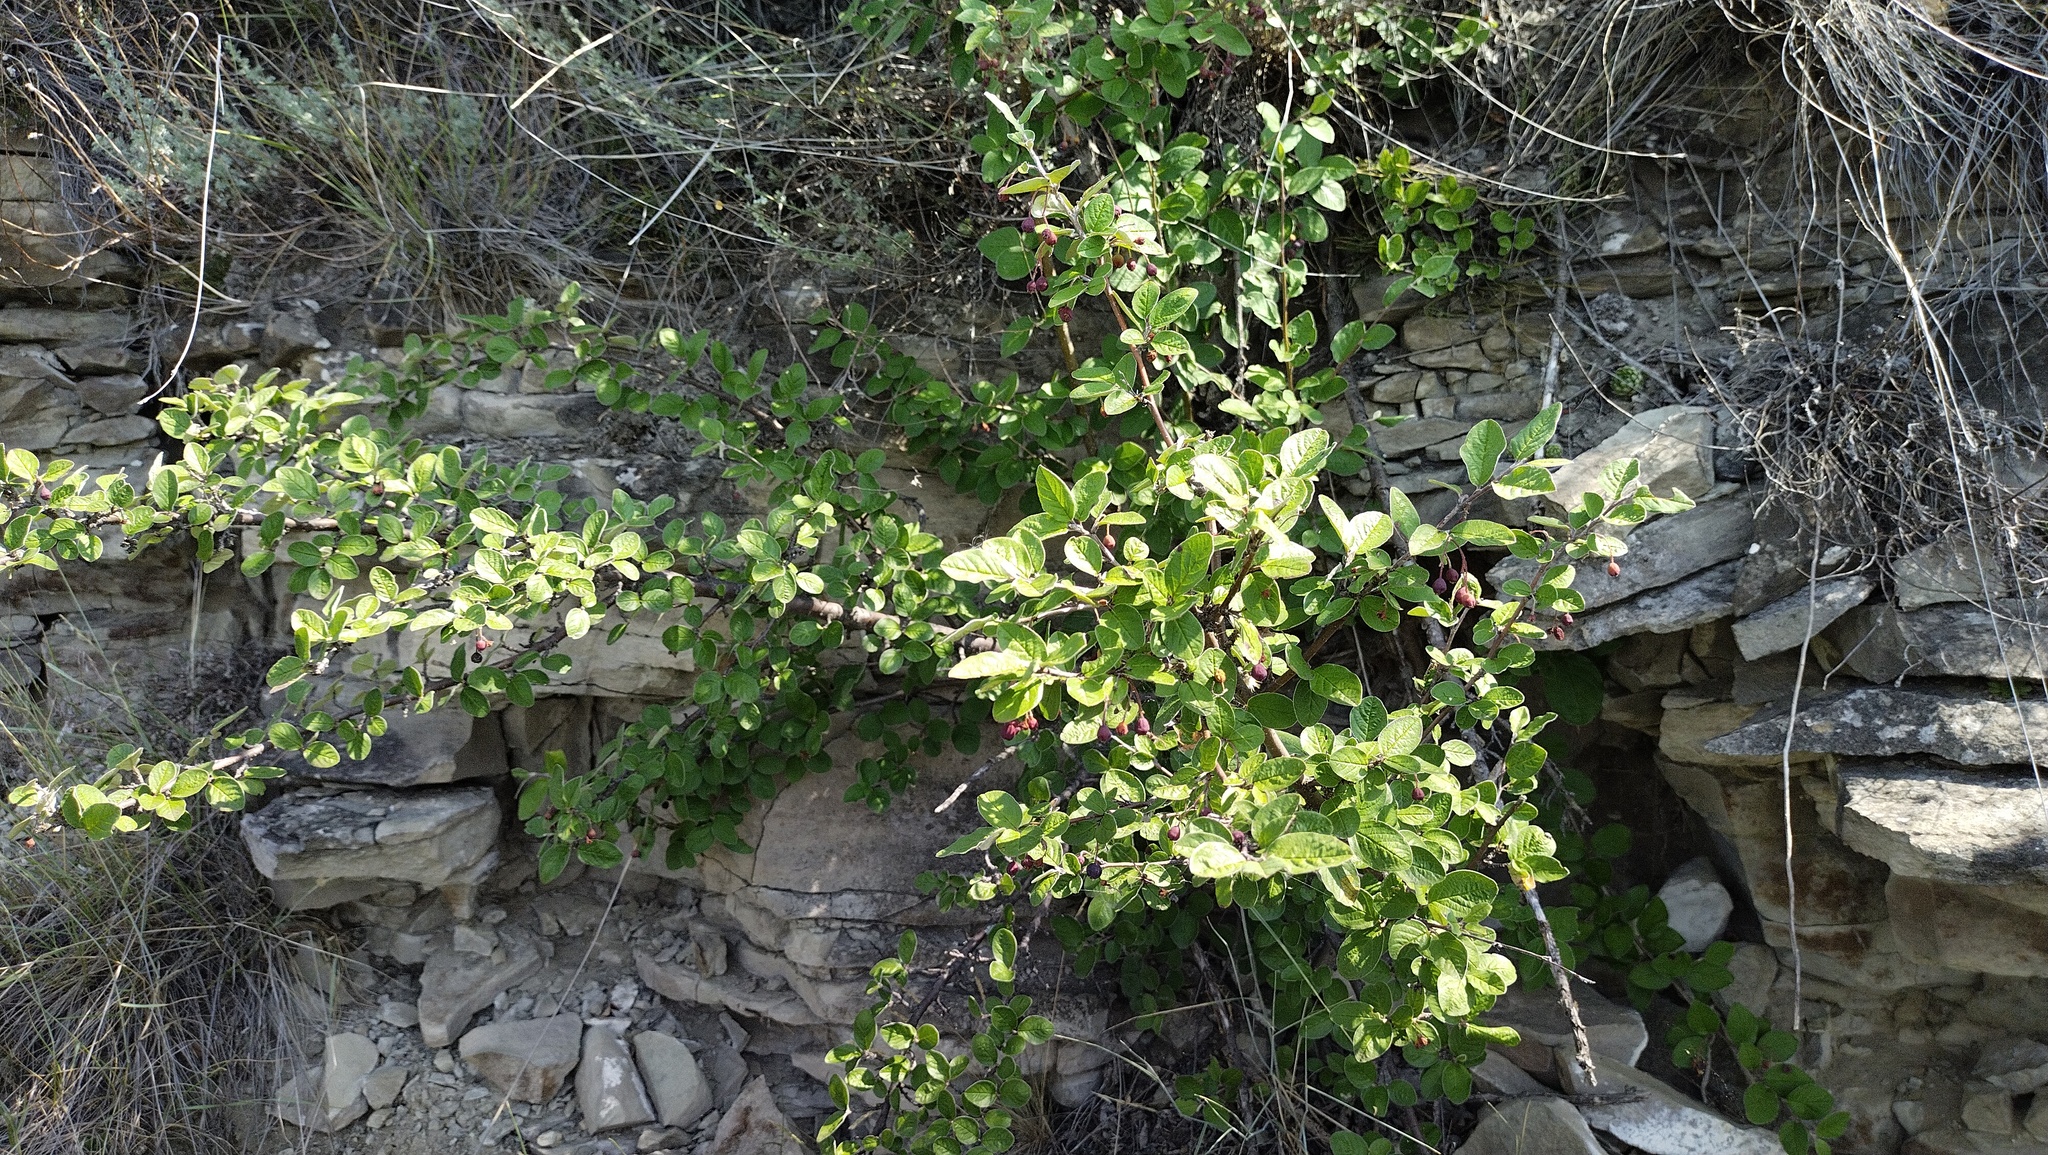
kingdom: Plantae
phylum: Tracheophyta
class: Magnoliopsida
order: Rosales
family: Rosaceae
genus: Cotoneaster
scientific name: Cotoneaster melanocarpus
